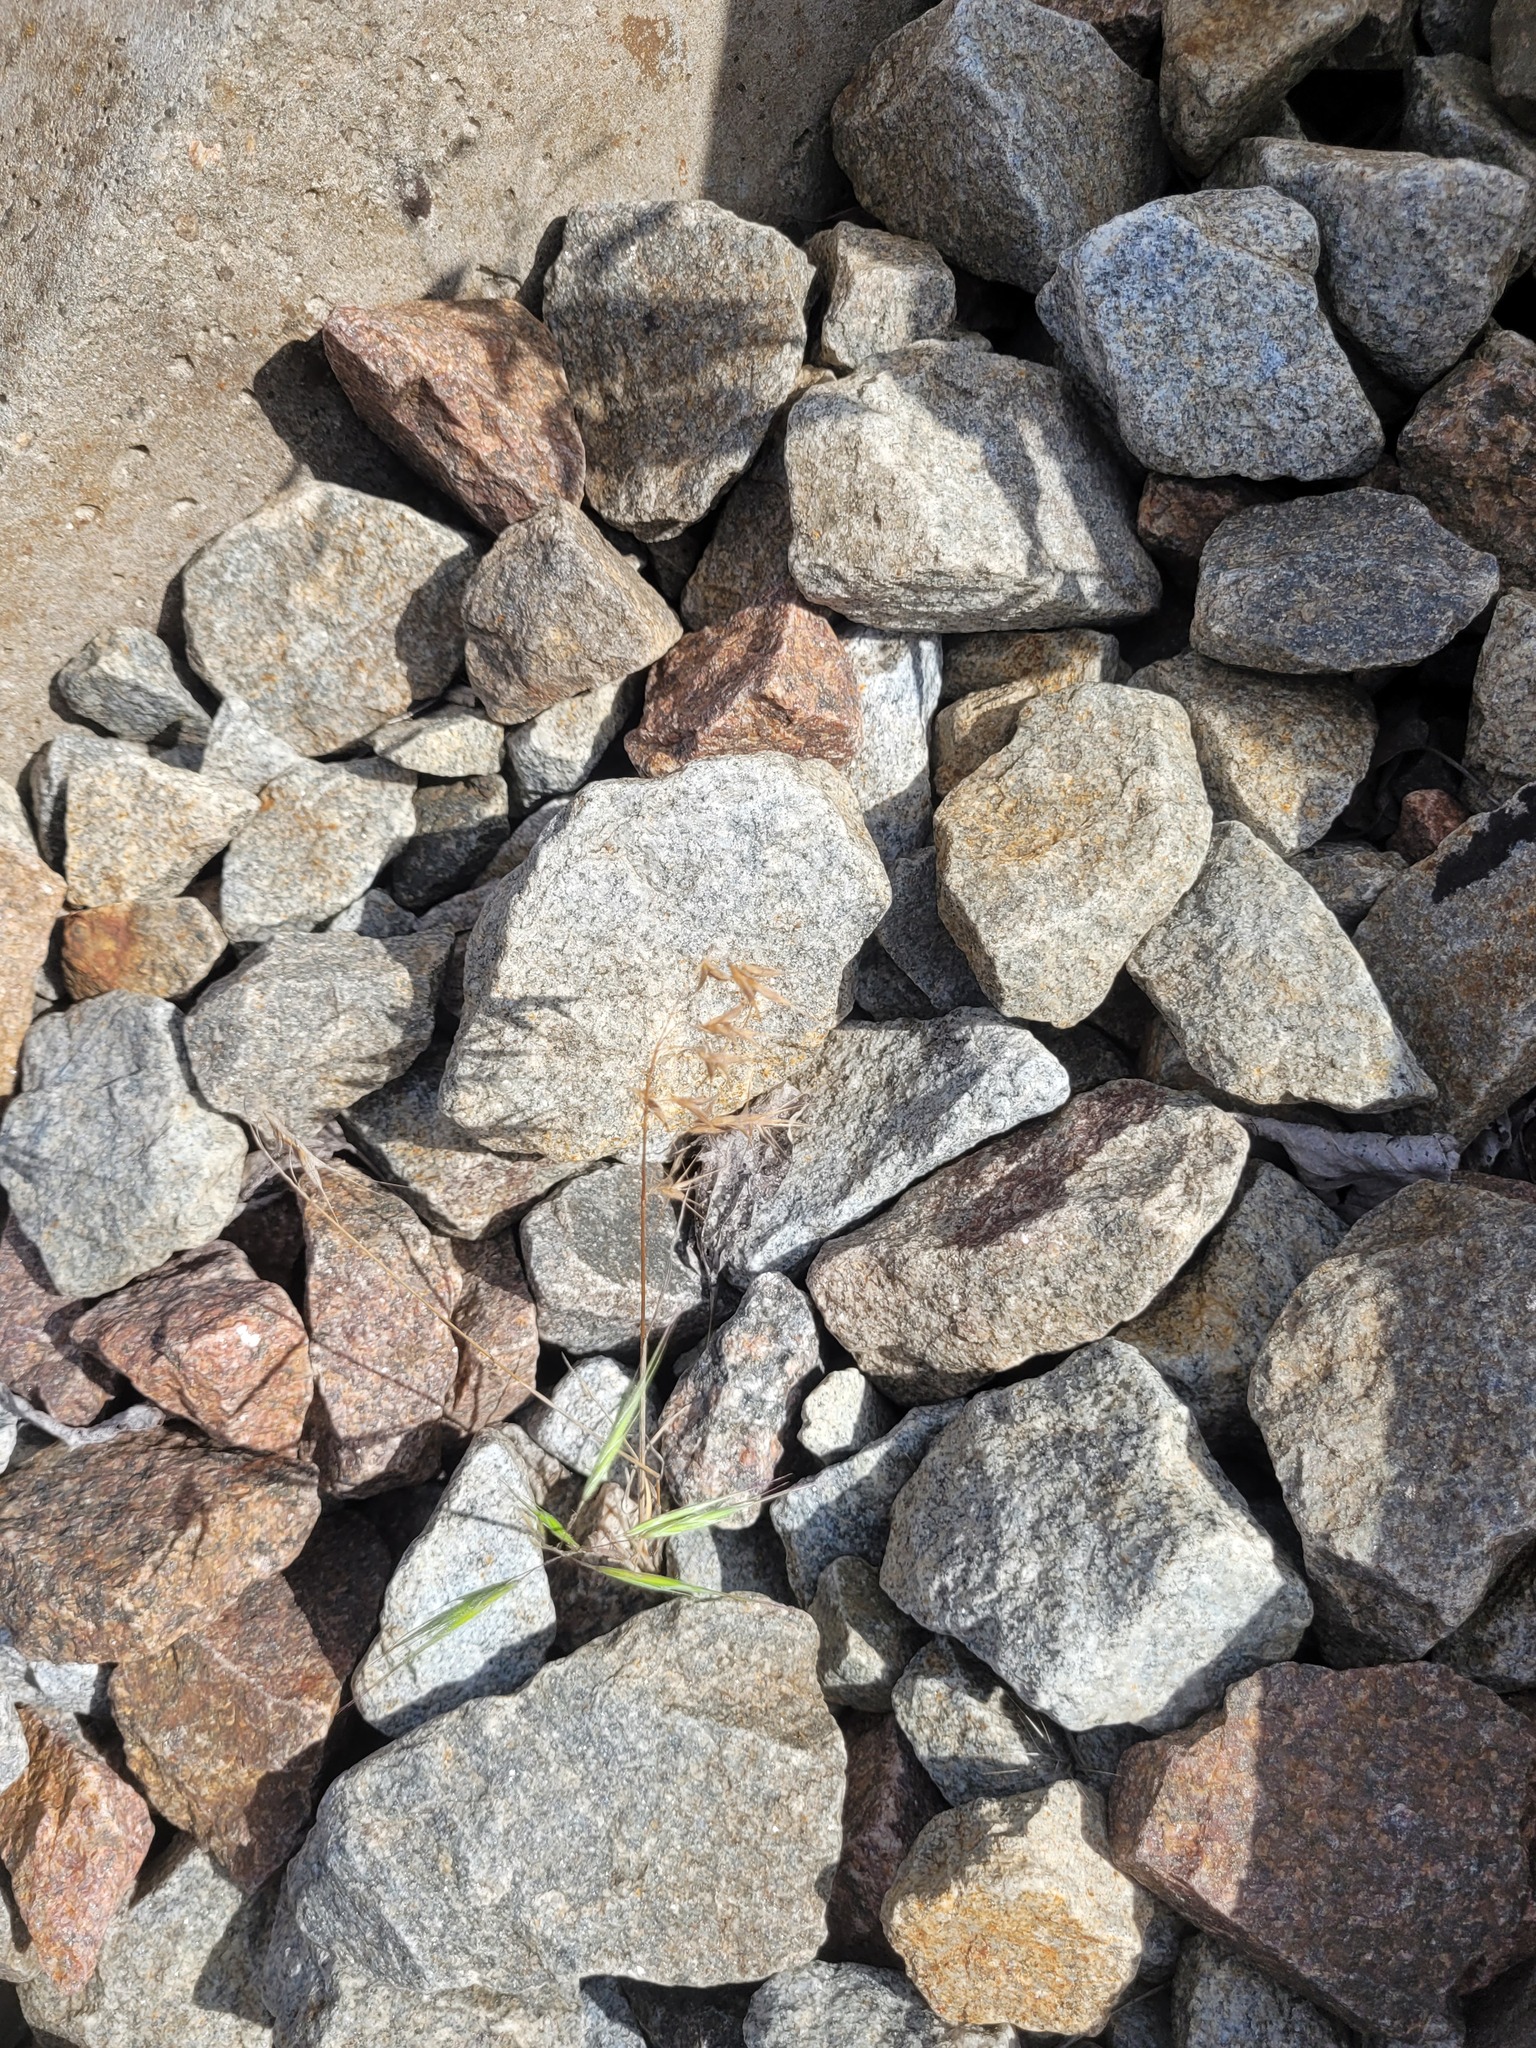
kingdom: Plantae
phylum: Tracheophyta
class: Liliopsida
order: Poales
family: Poaceae
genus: Bromus
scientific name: Bromus tectorum
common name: Cheatgrass
